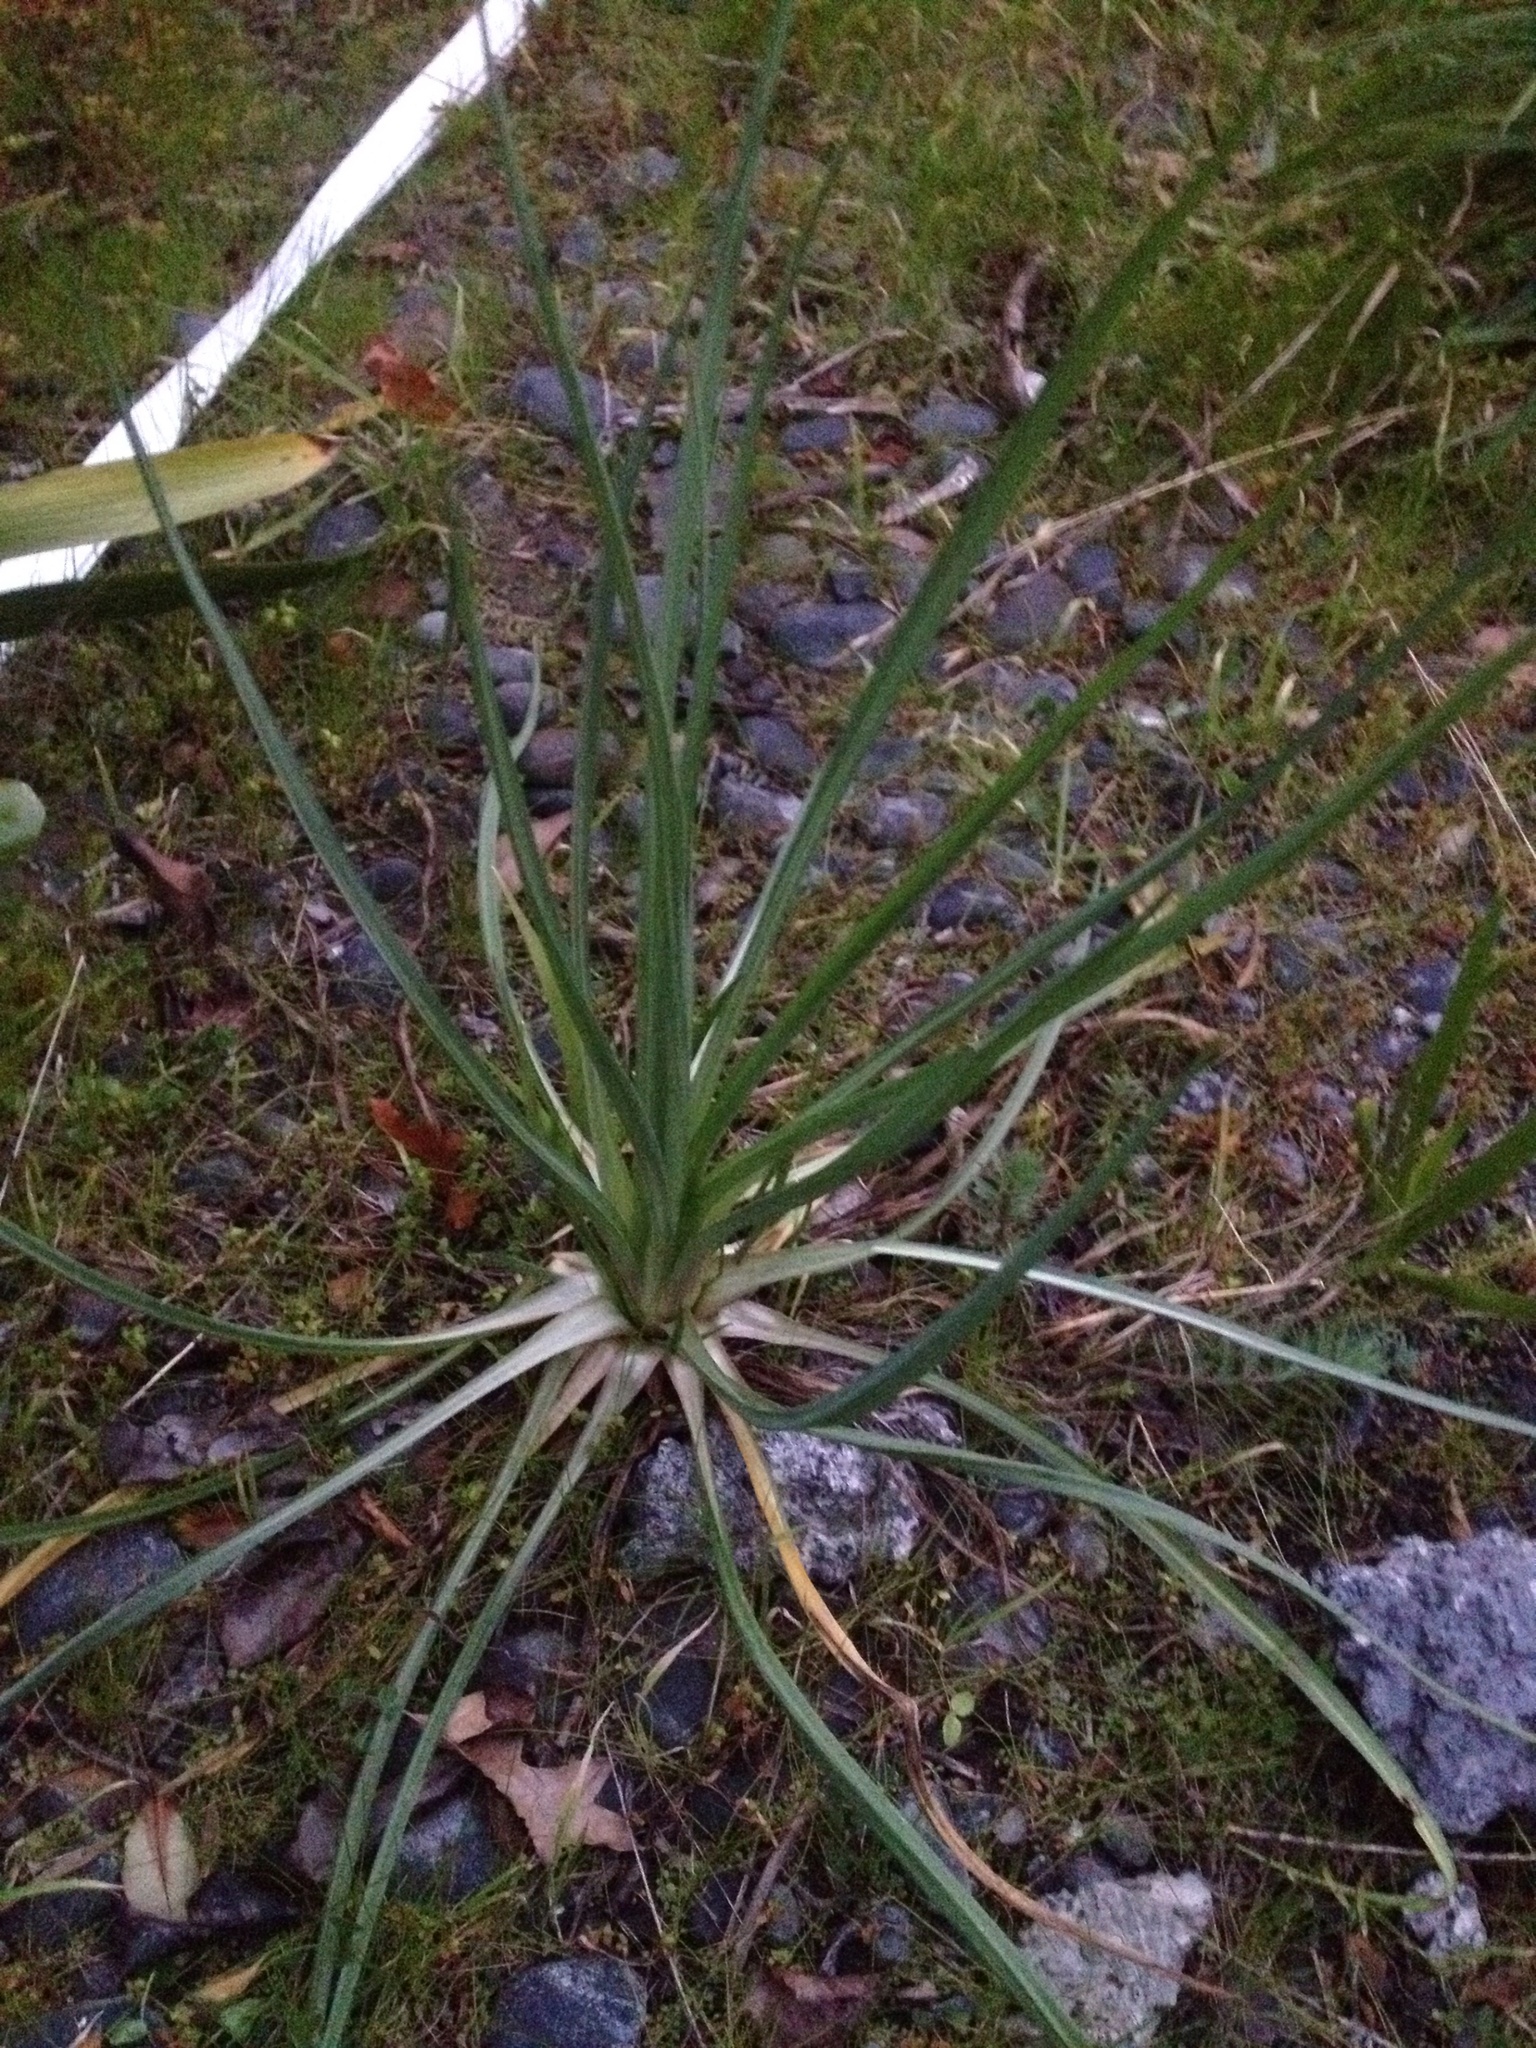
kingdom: Plantae
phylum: Tracheophyta
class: Magnoliopsida
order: Asterales
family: Asteraceae
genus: Tragopogon
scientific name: Tragopogon porrifolius
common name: Salsify
